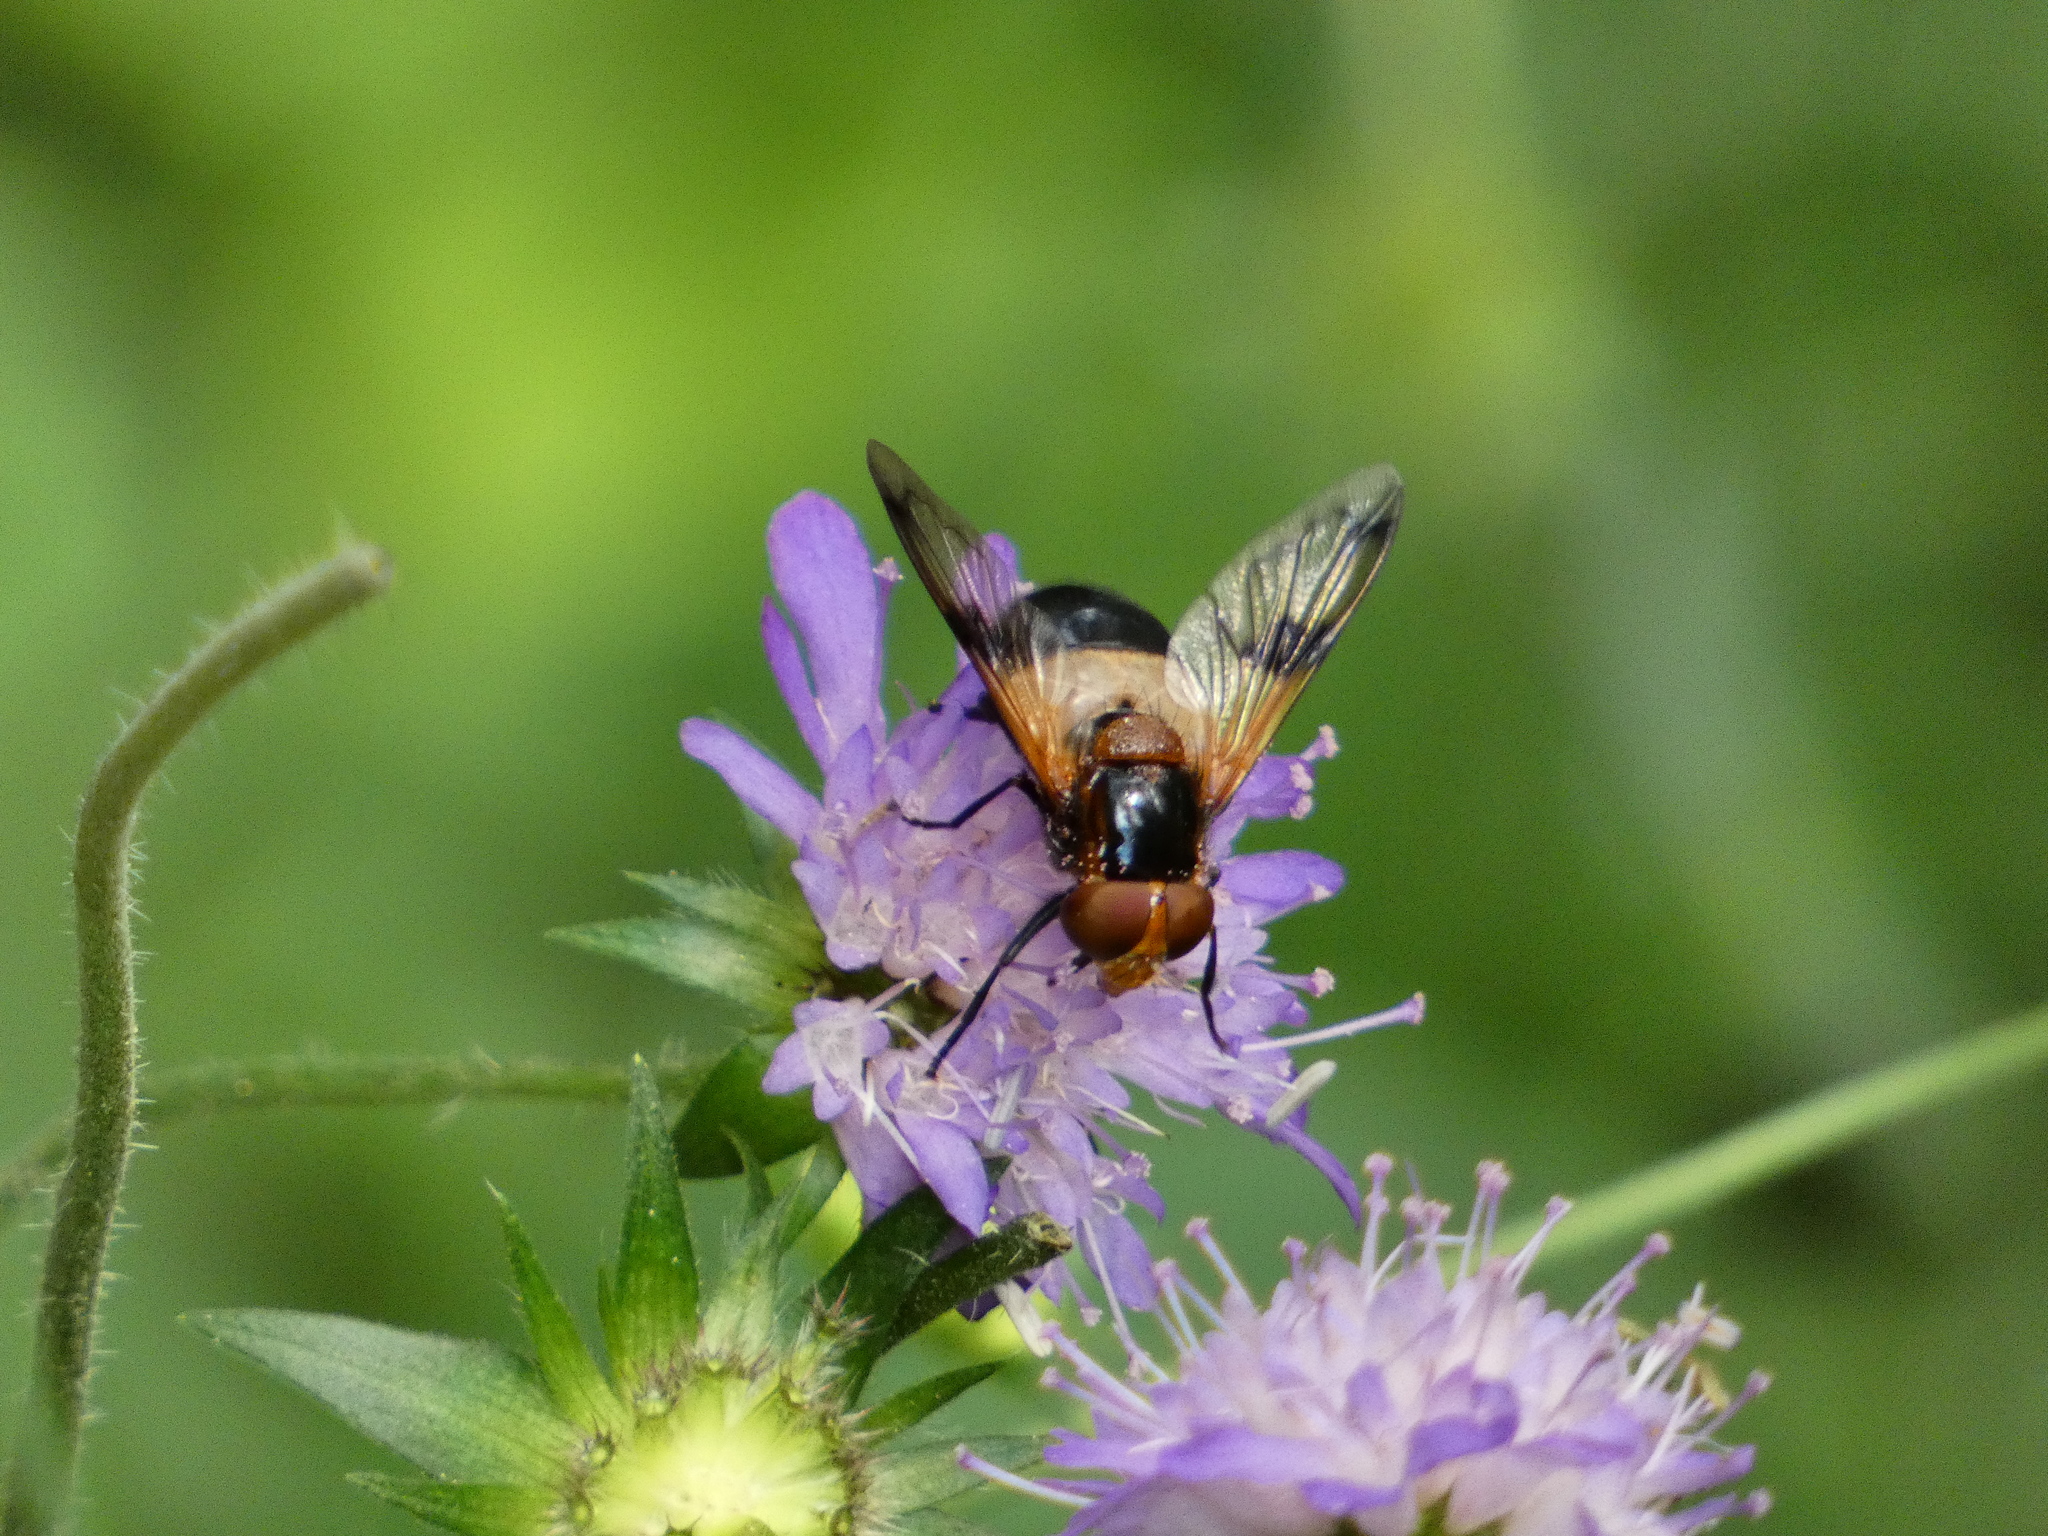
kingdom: Animalia
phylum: Arthropoda
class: Insecta
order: Diptera
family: Syrphidae
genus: Volucella
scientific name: Volucella pellucens
